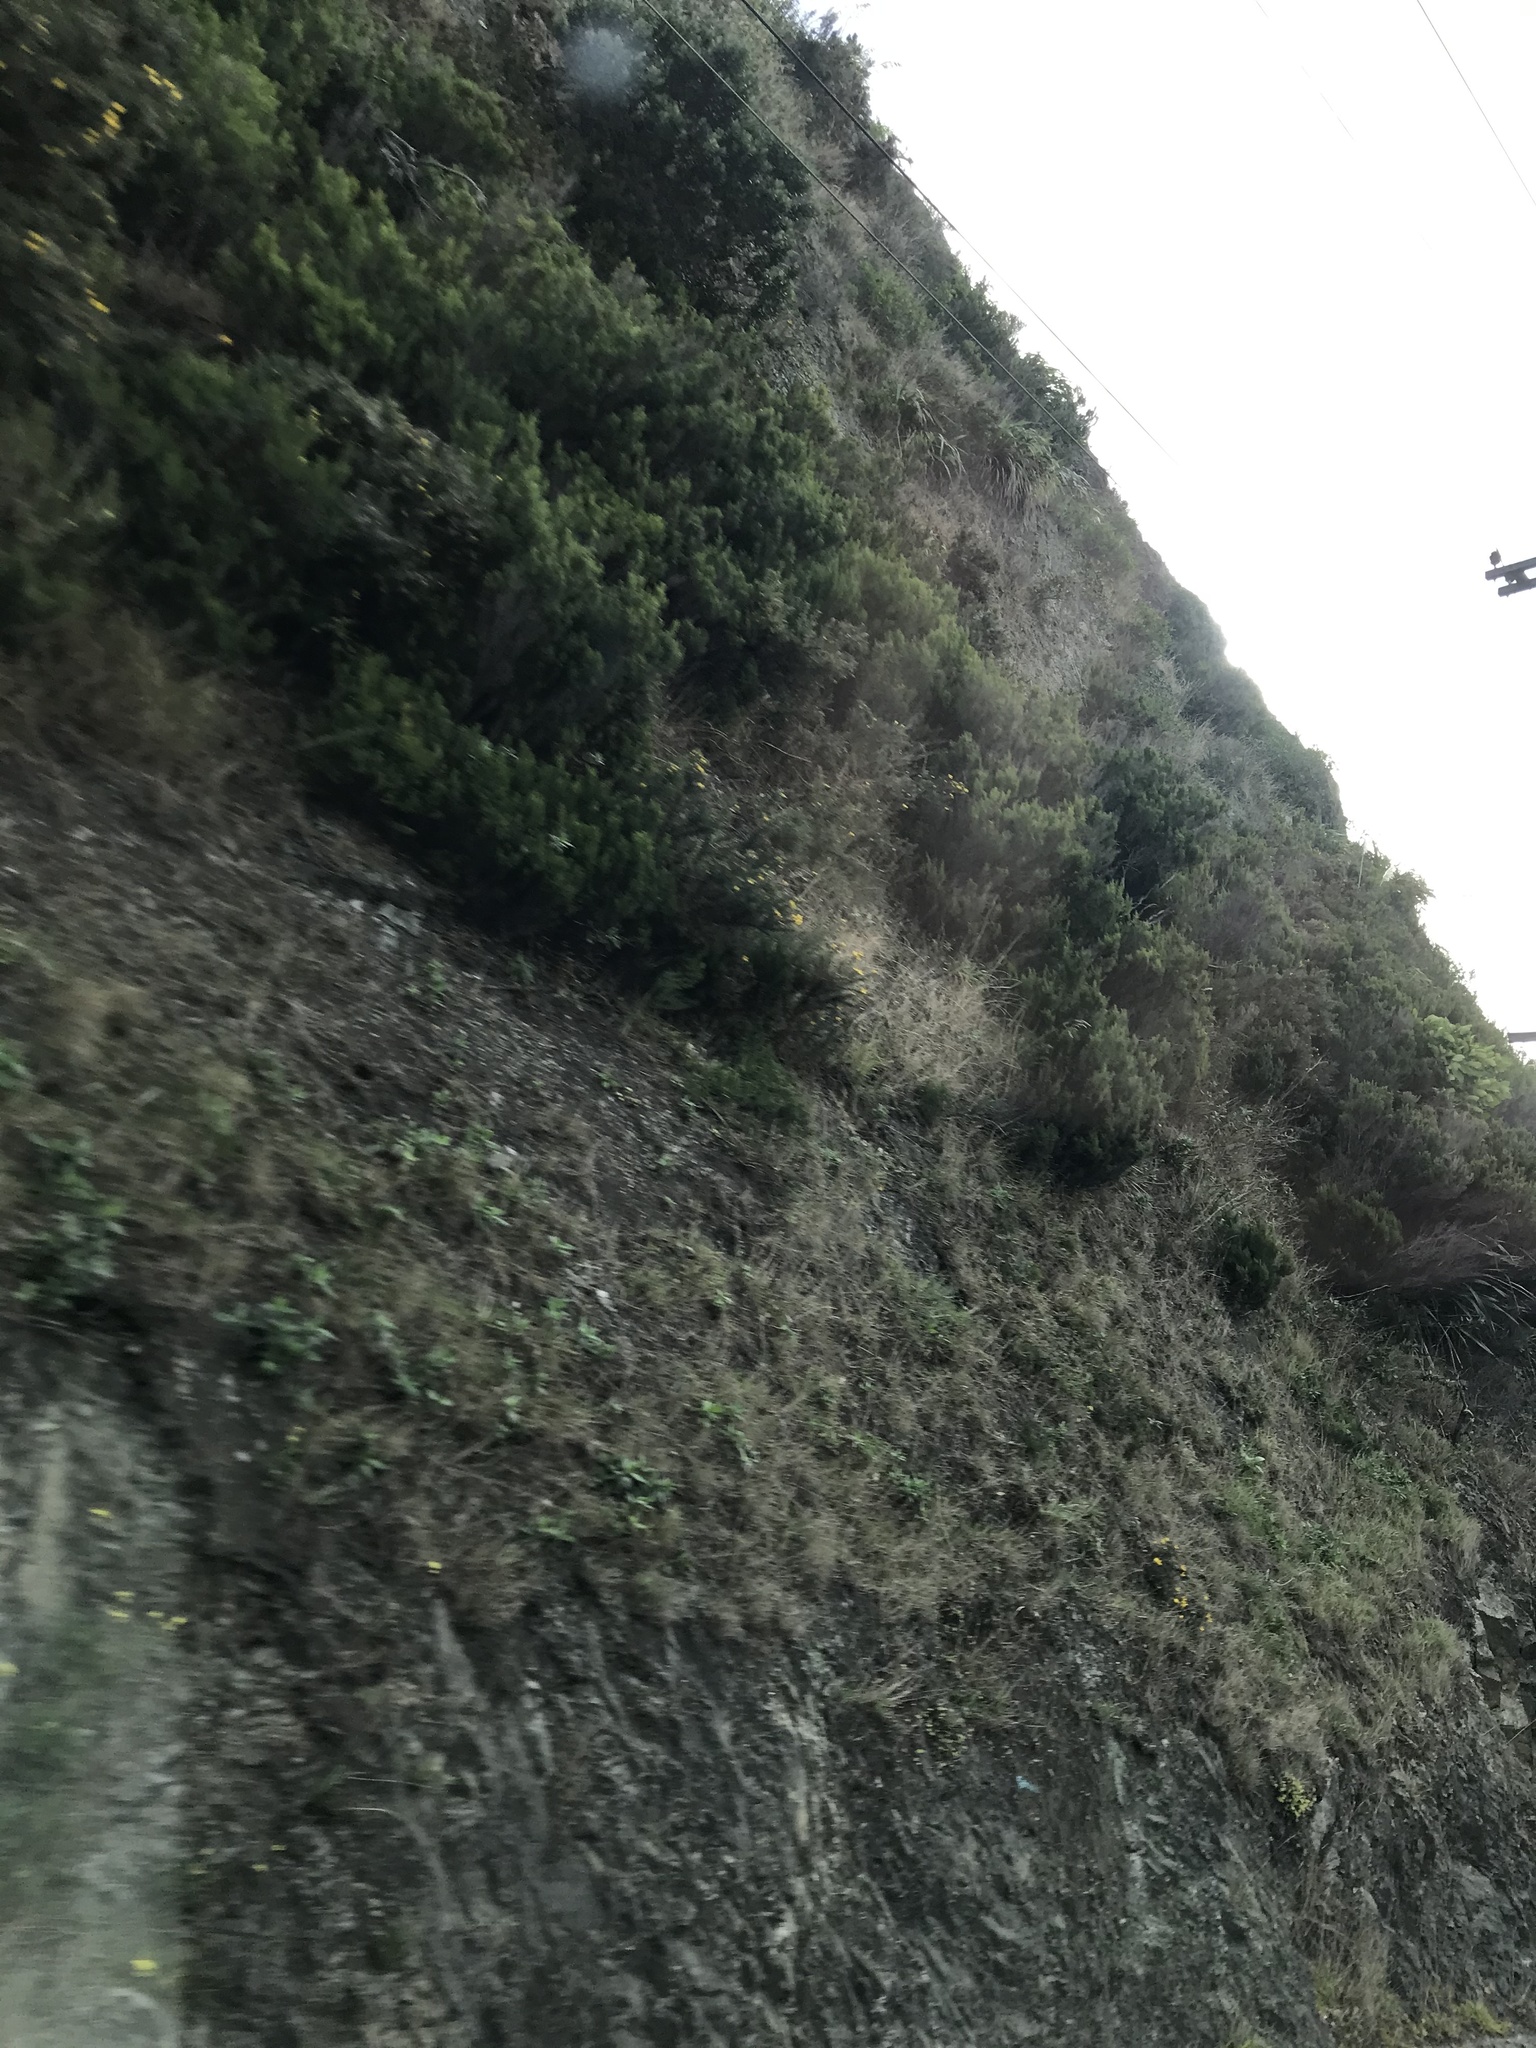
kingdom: Plantae
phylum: Tracheophyta
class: Magnoliopsida
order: Fabales
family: Fabaceae
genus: Ulex
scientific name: Ulex europaeus
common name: Common gorse
